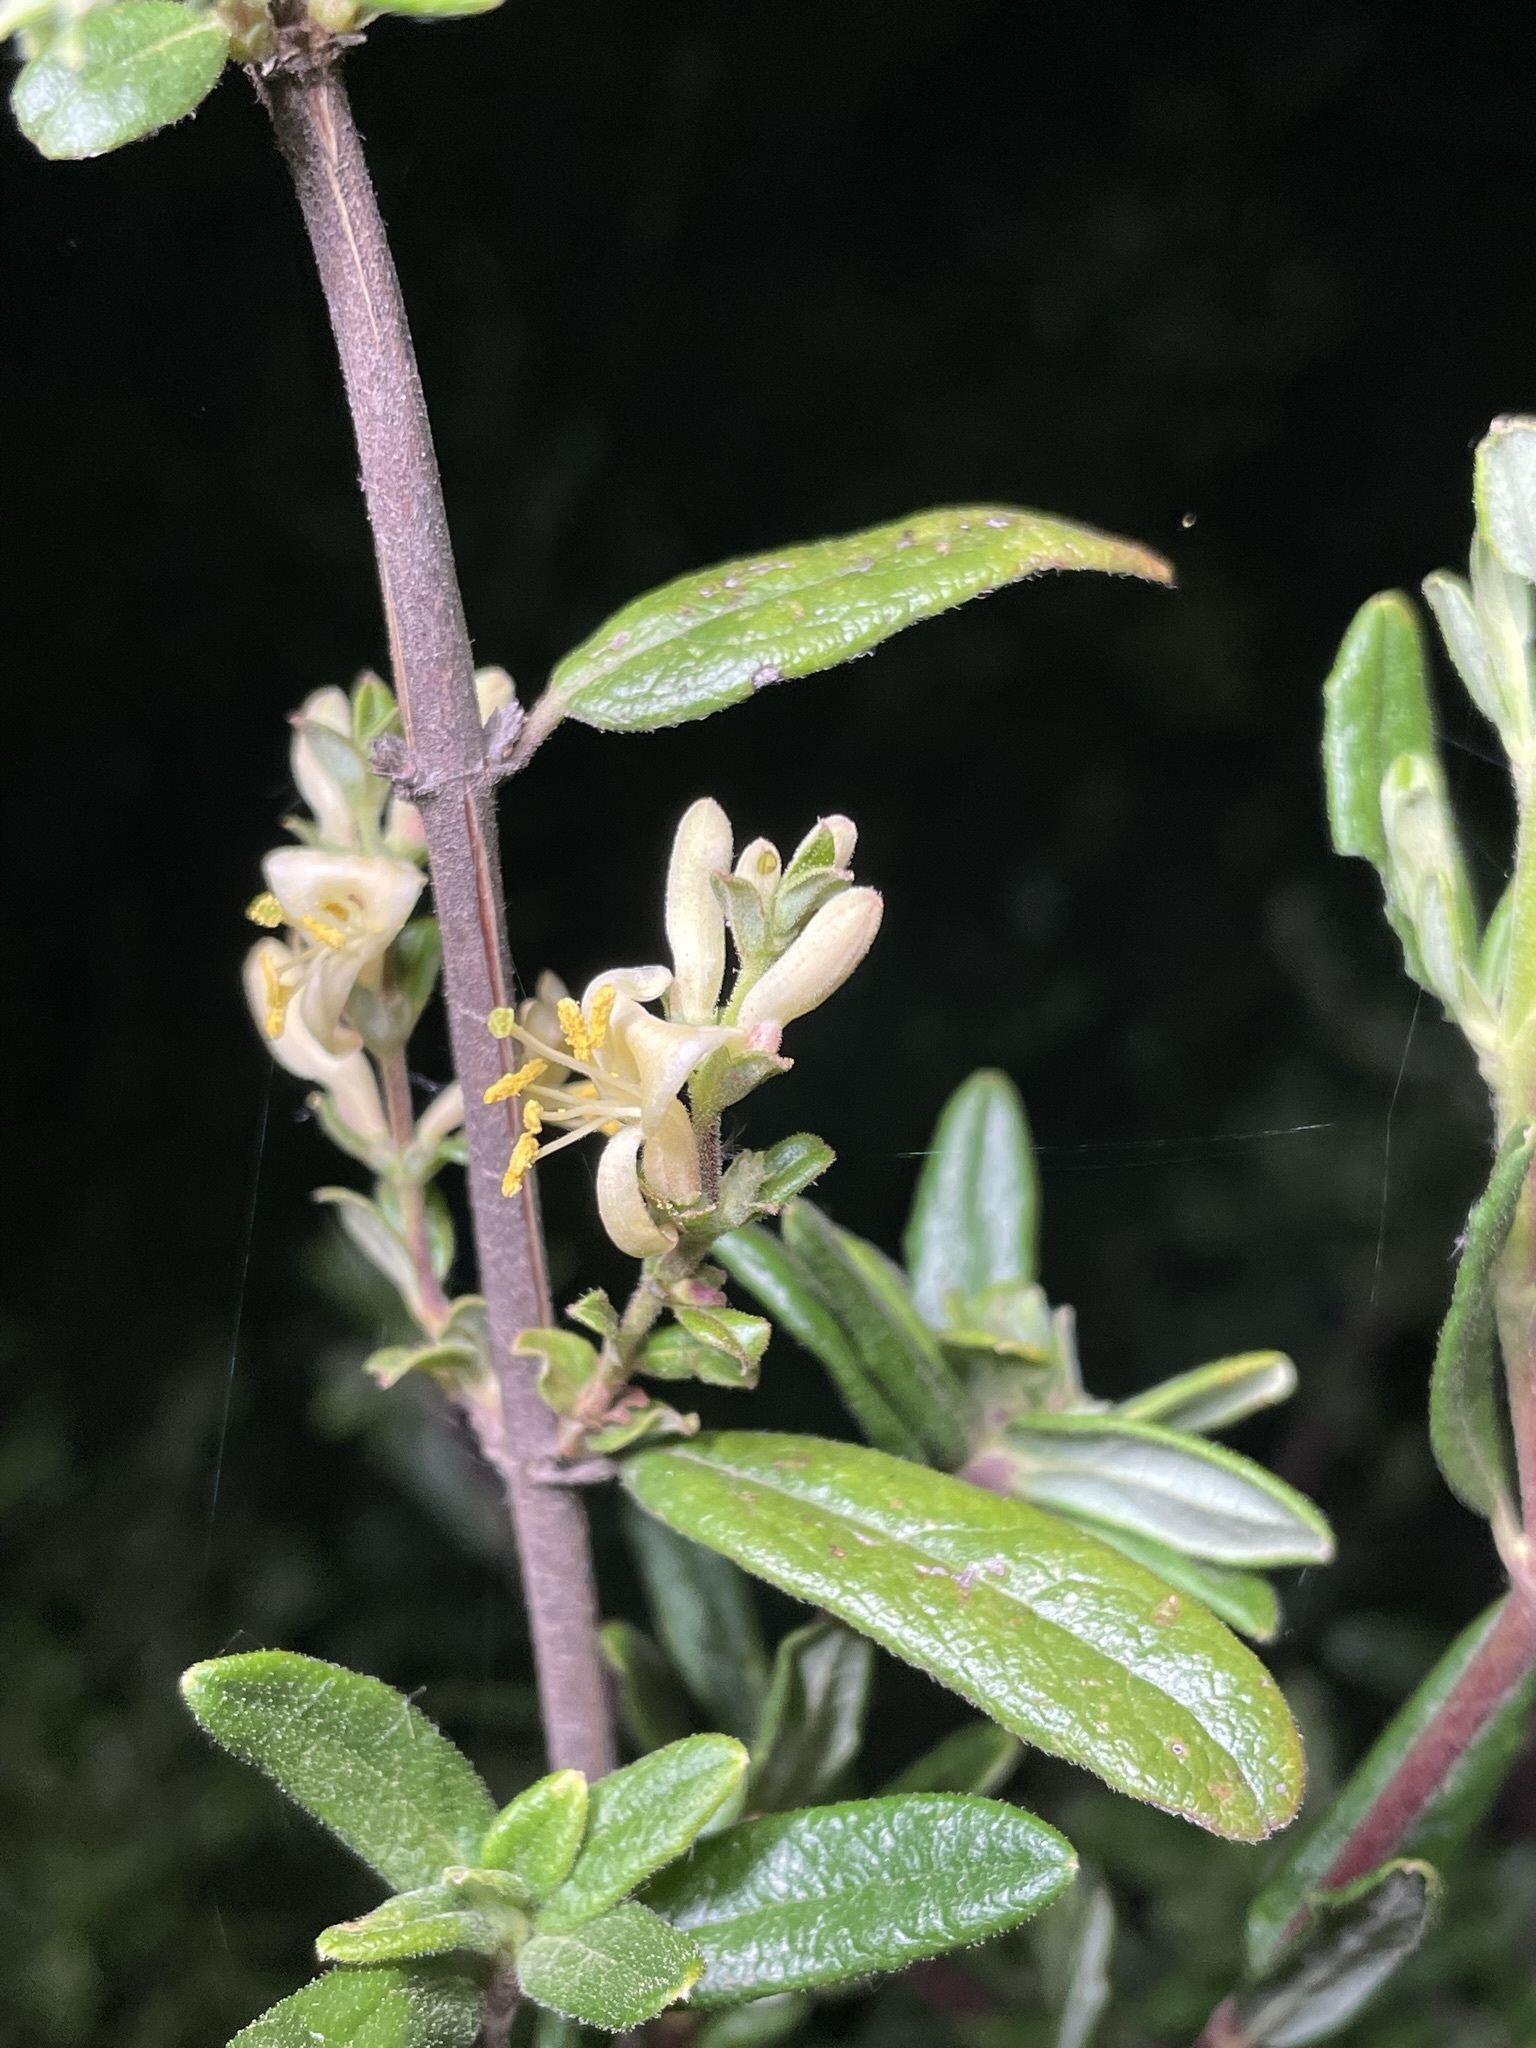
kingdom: Plantae
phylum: Tracheophyta
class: Magnoliopsida
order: Dipsacales
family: Caprifoliaceae
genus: Lonicera
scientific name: Lonicera subspicata
